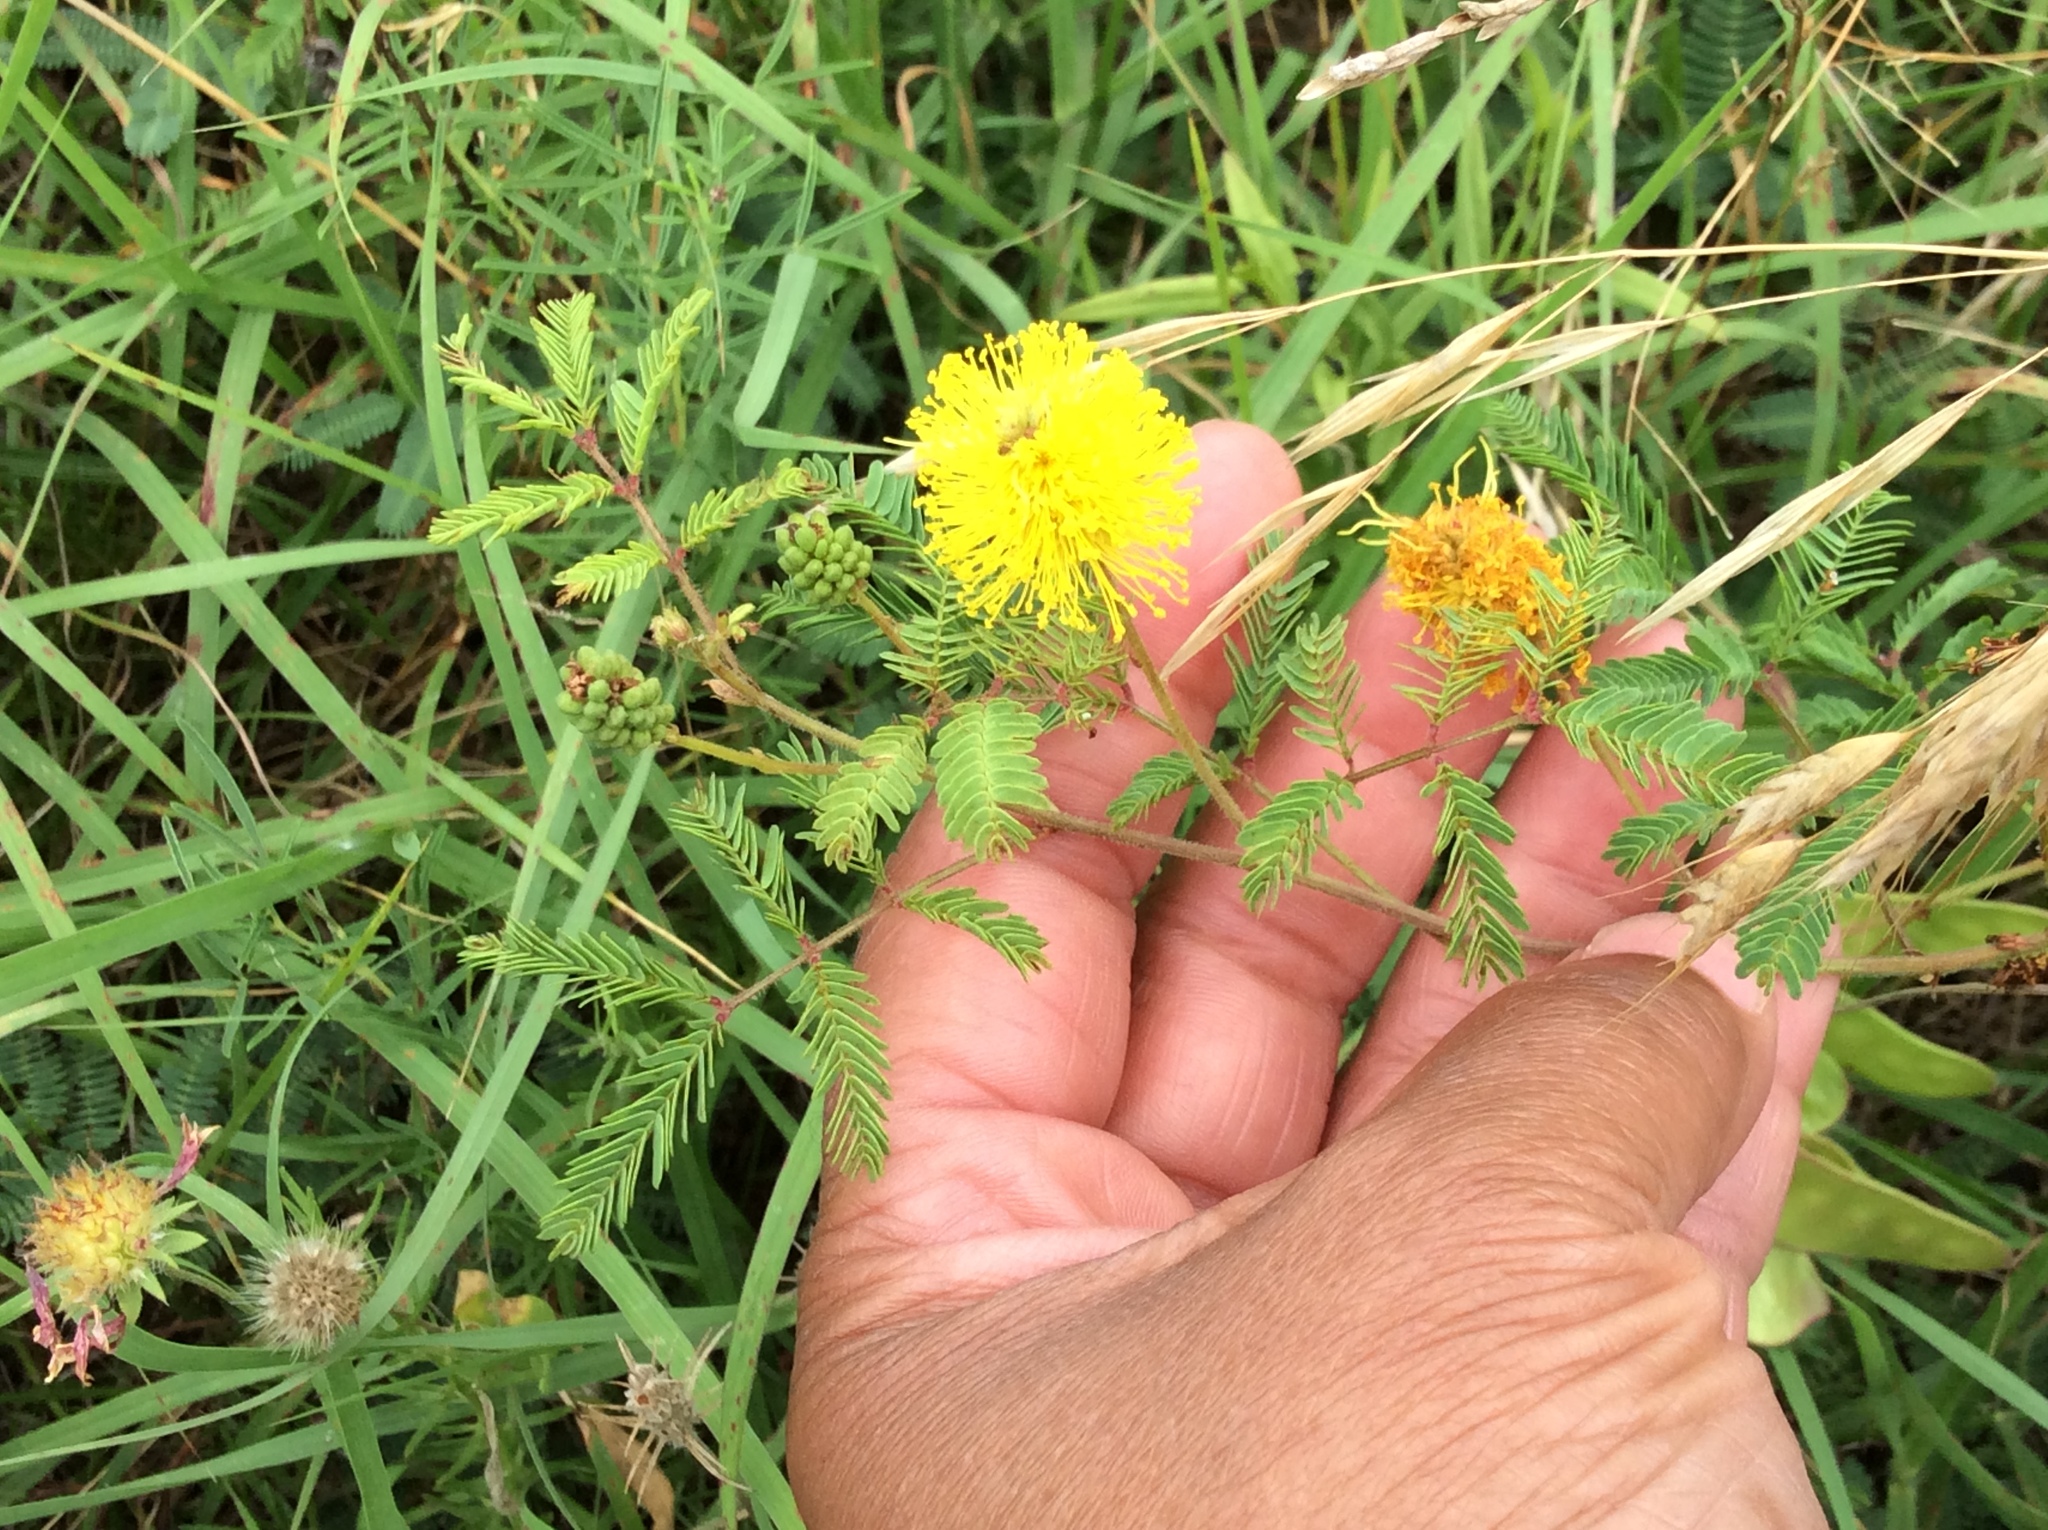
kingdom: Plantae
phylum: Tracheophyta
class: Magnoliopsida
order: Fabales
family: Fabaceae
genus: Neptunia
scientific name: Neptunia lutea
